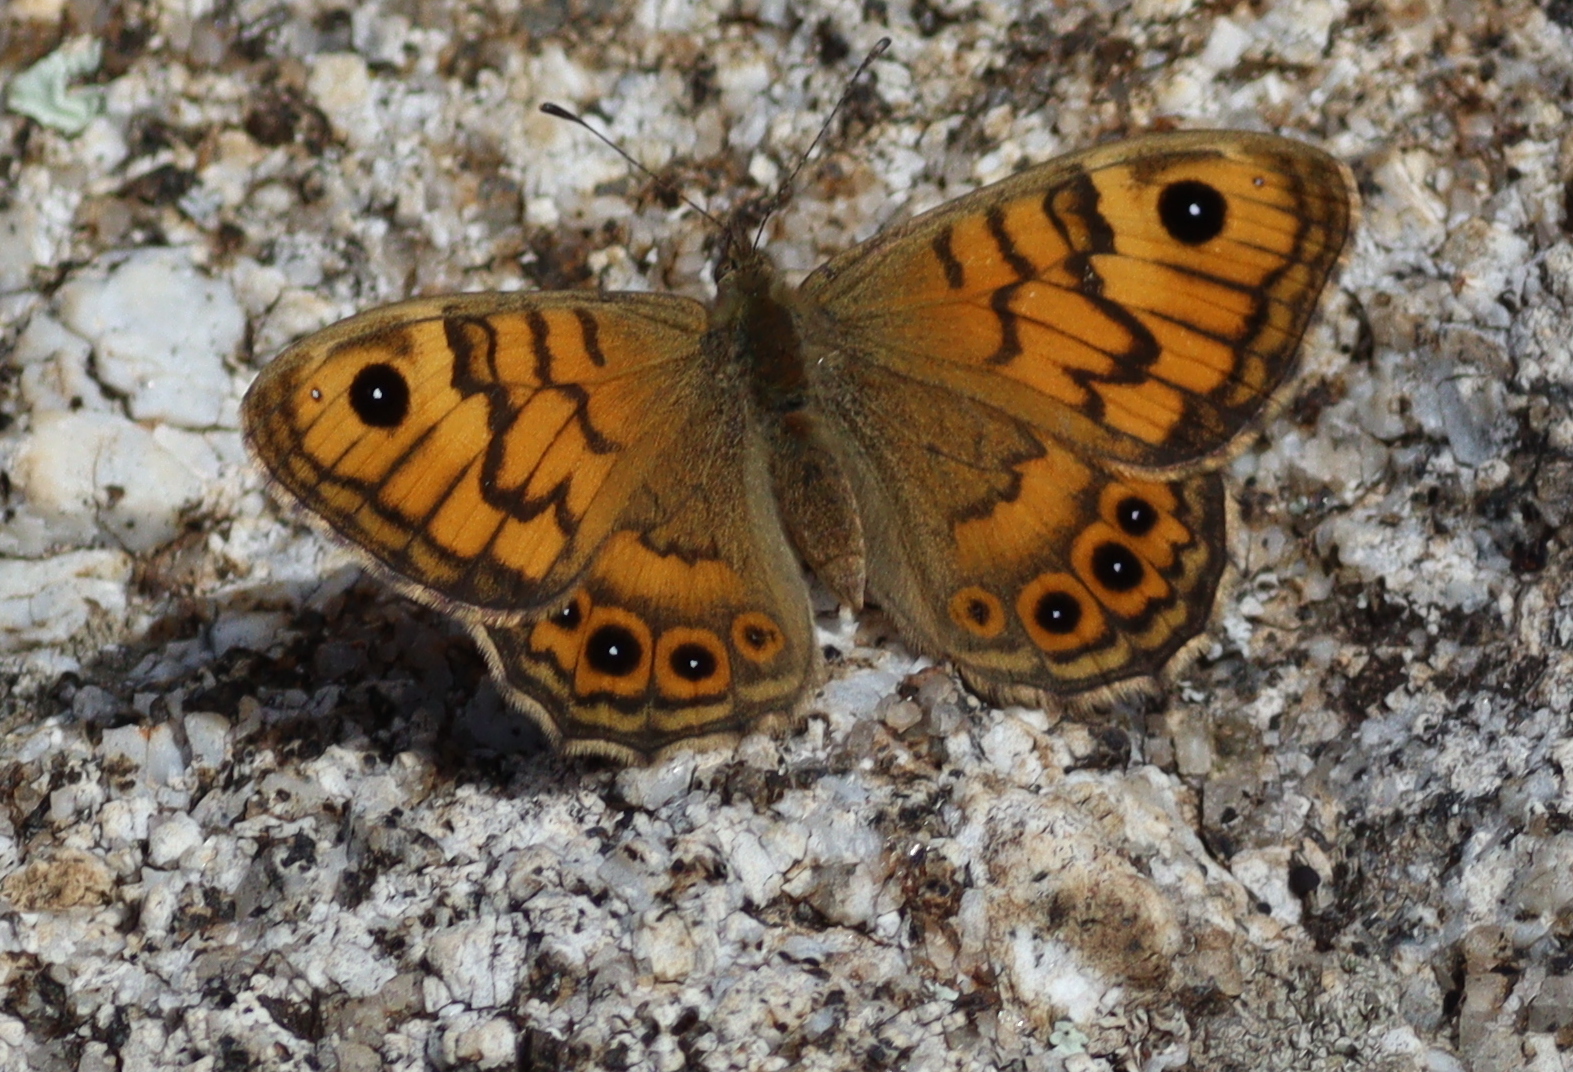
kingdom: Animalia
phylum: Arthropoda
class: Insecta
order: Lepidoptera
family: Nymphalidae
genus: Pararge
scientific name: Pararge Lasiommata megera
